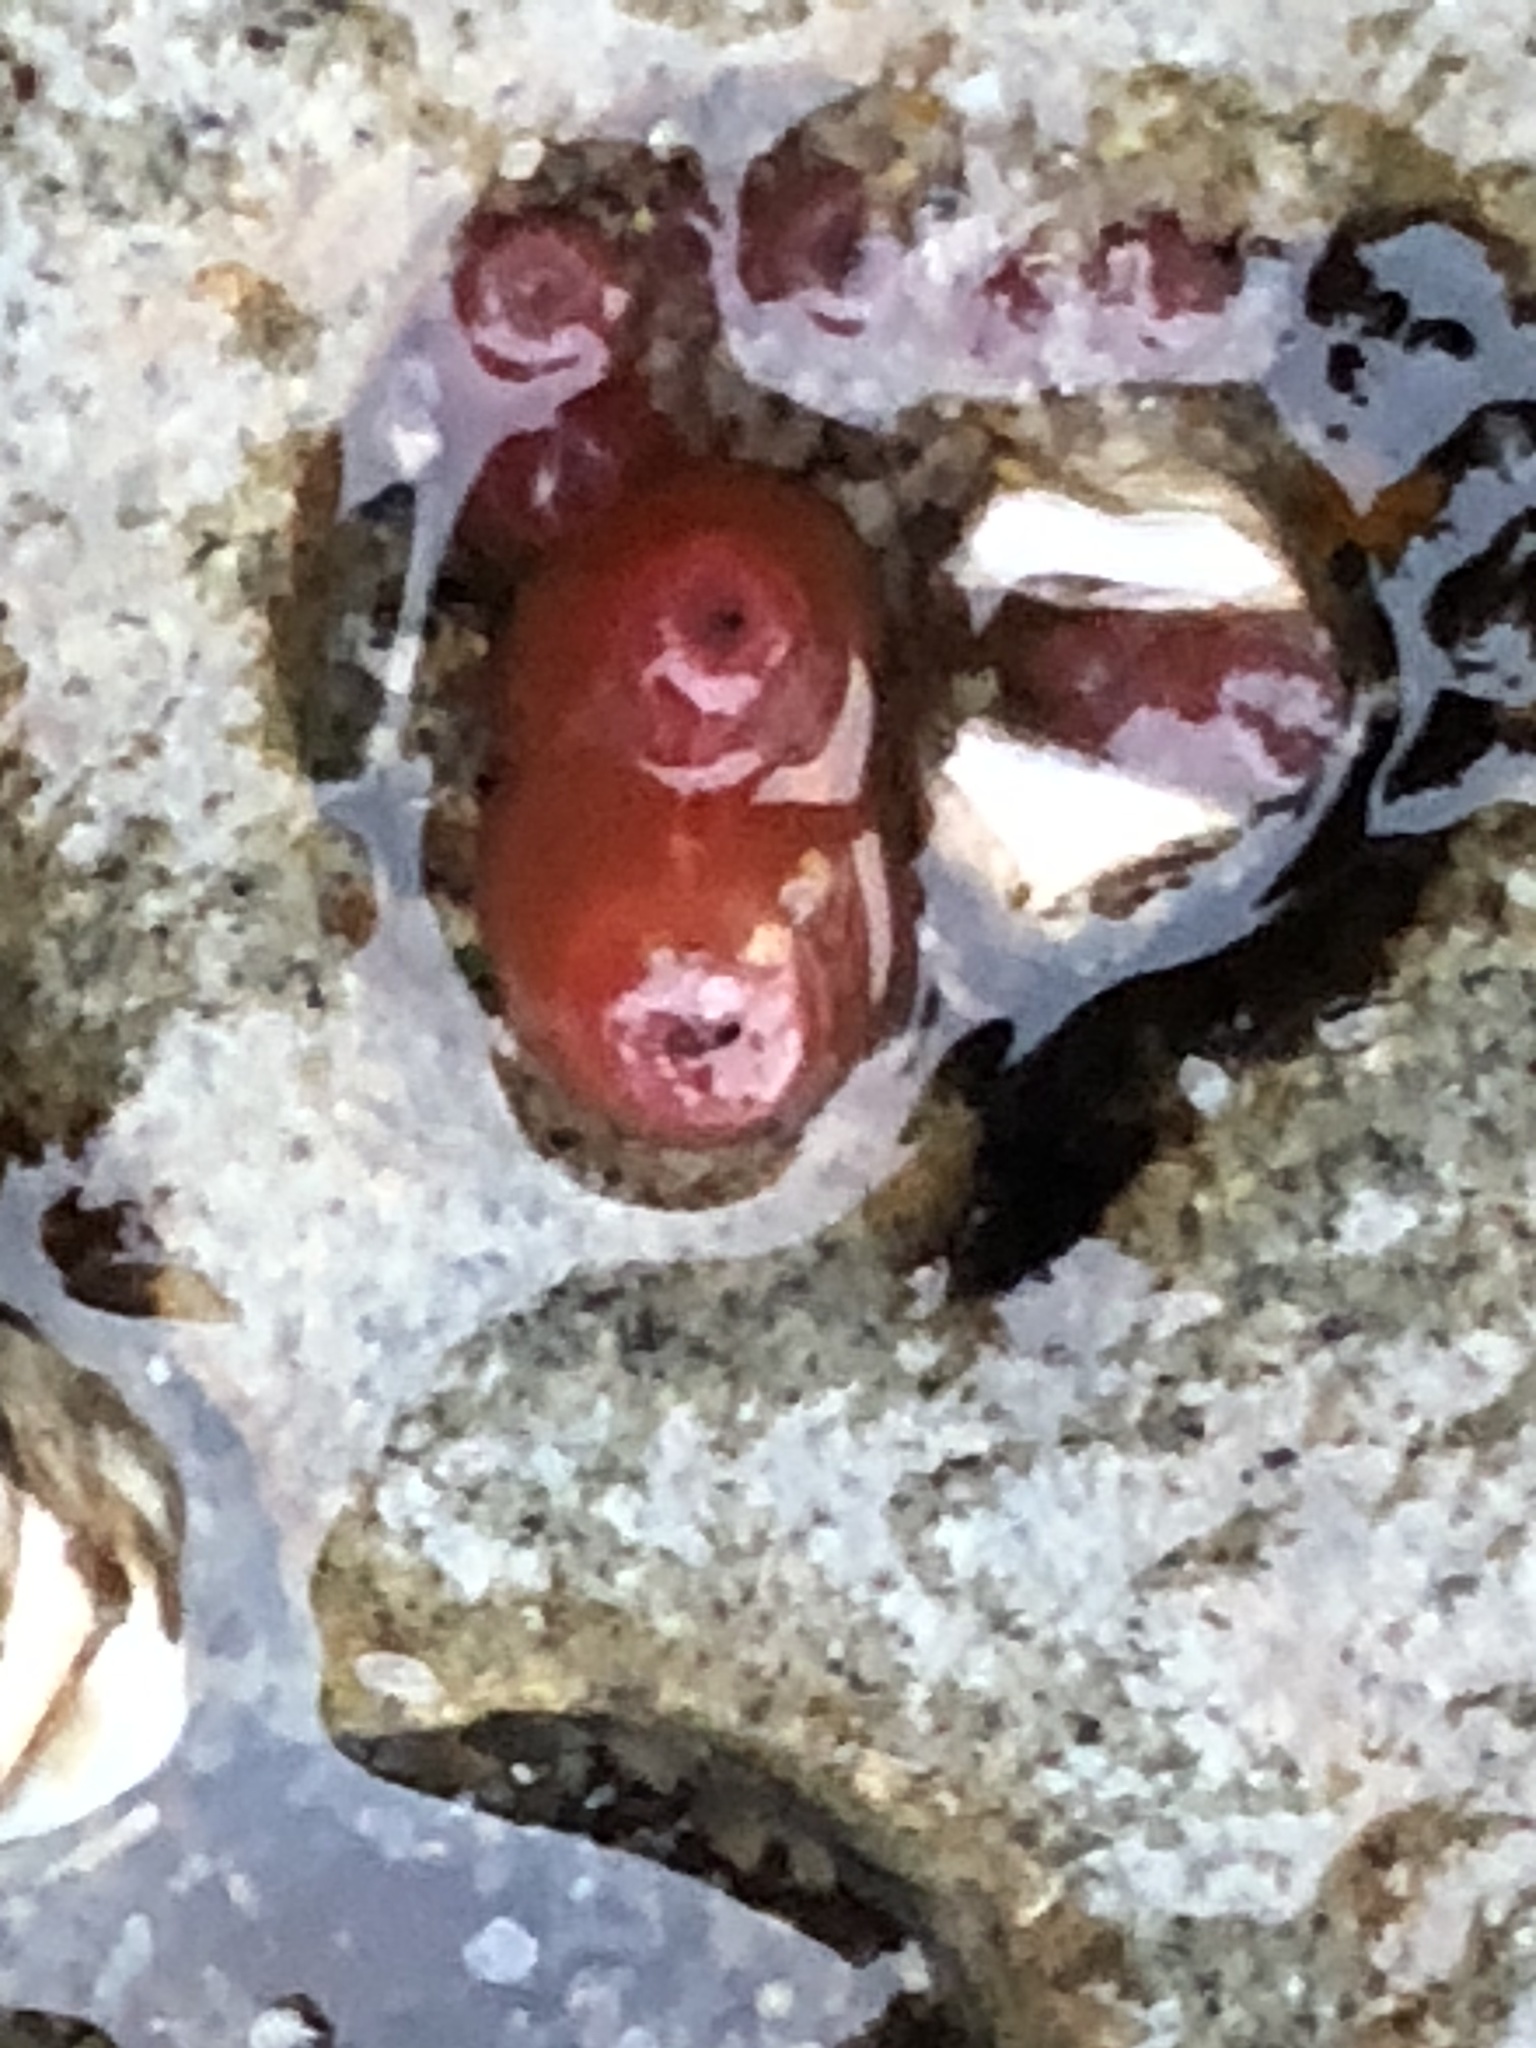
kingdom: Animalia
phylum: Mollusca
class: Bivalvia
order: Adapedonta
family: Hiatellidae
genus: Hiatella
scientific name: Hiatella arctica
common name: Arctic hiatella
